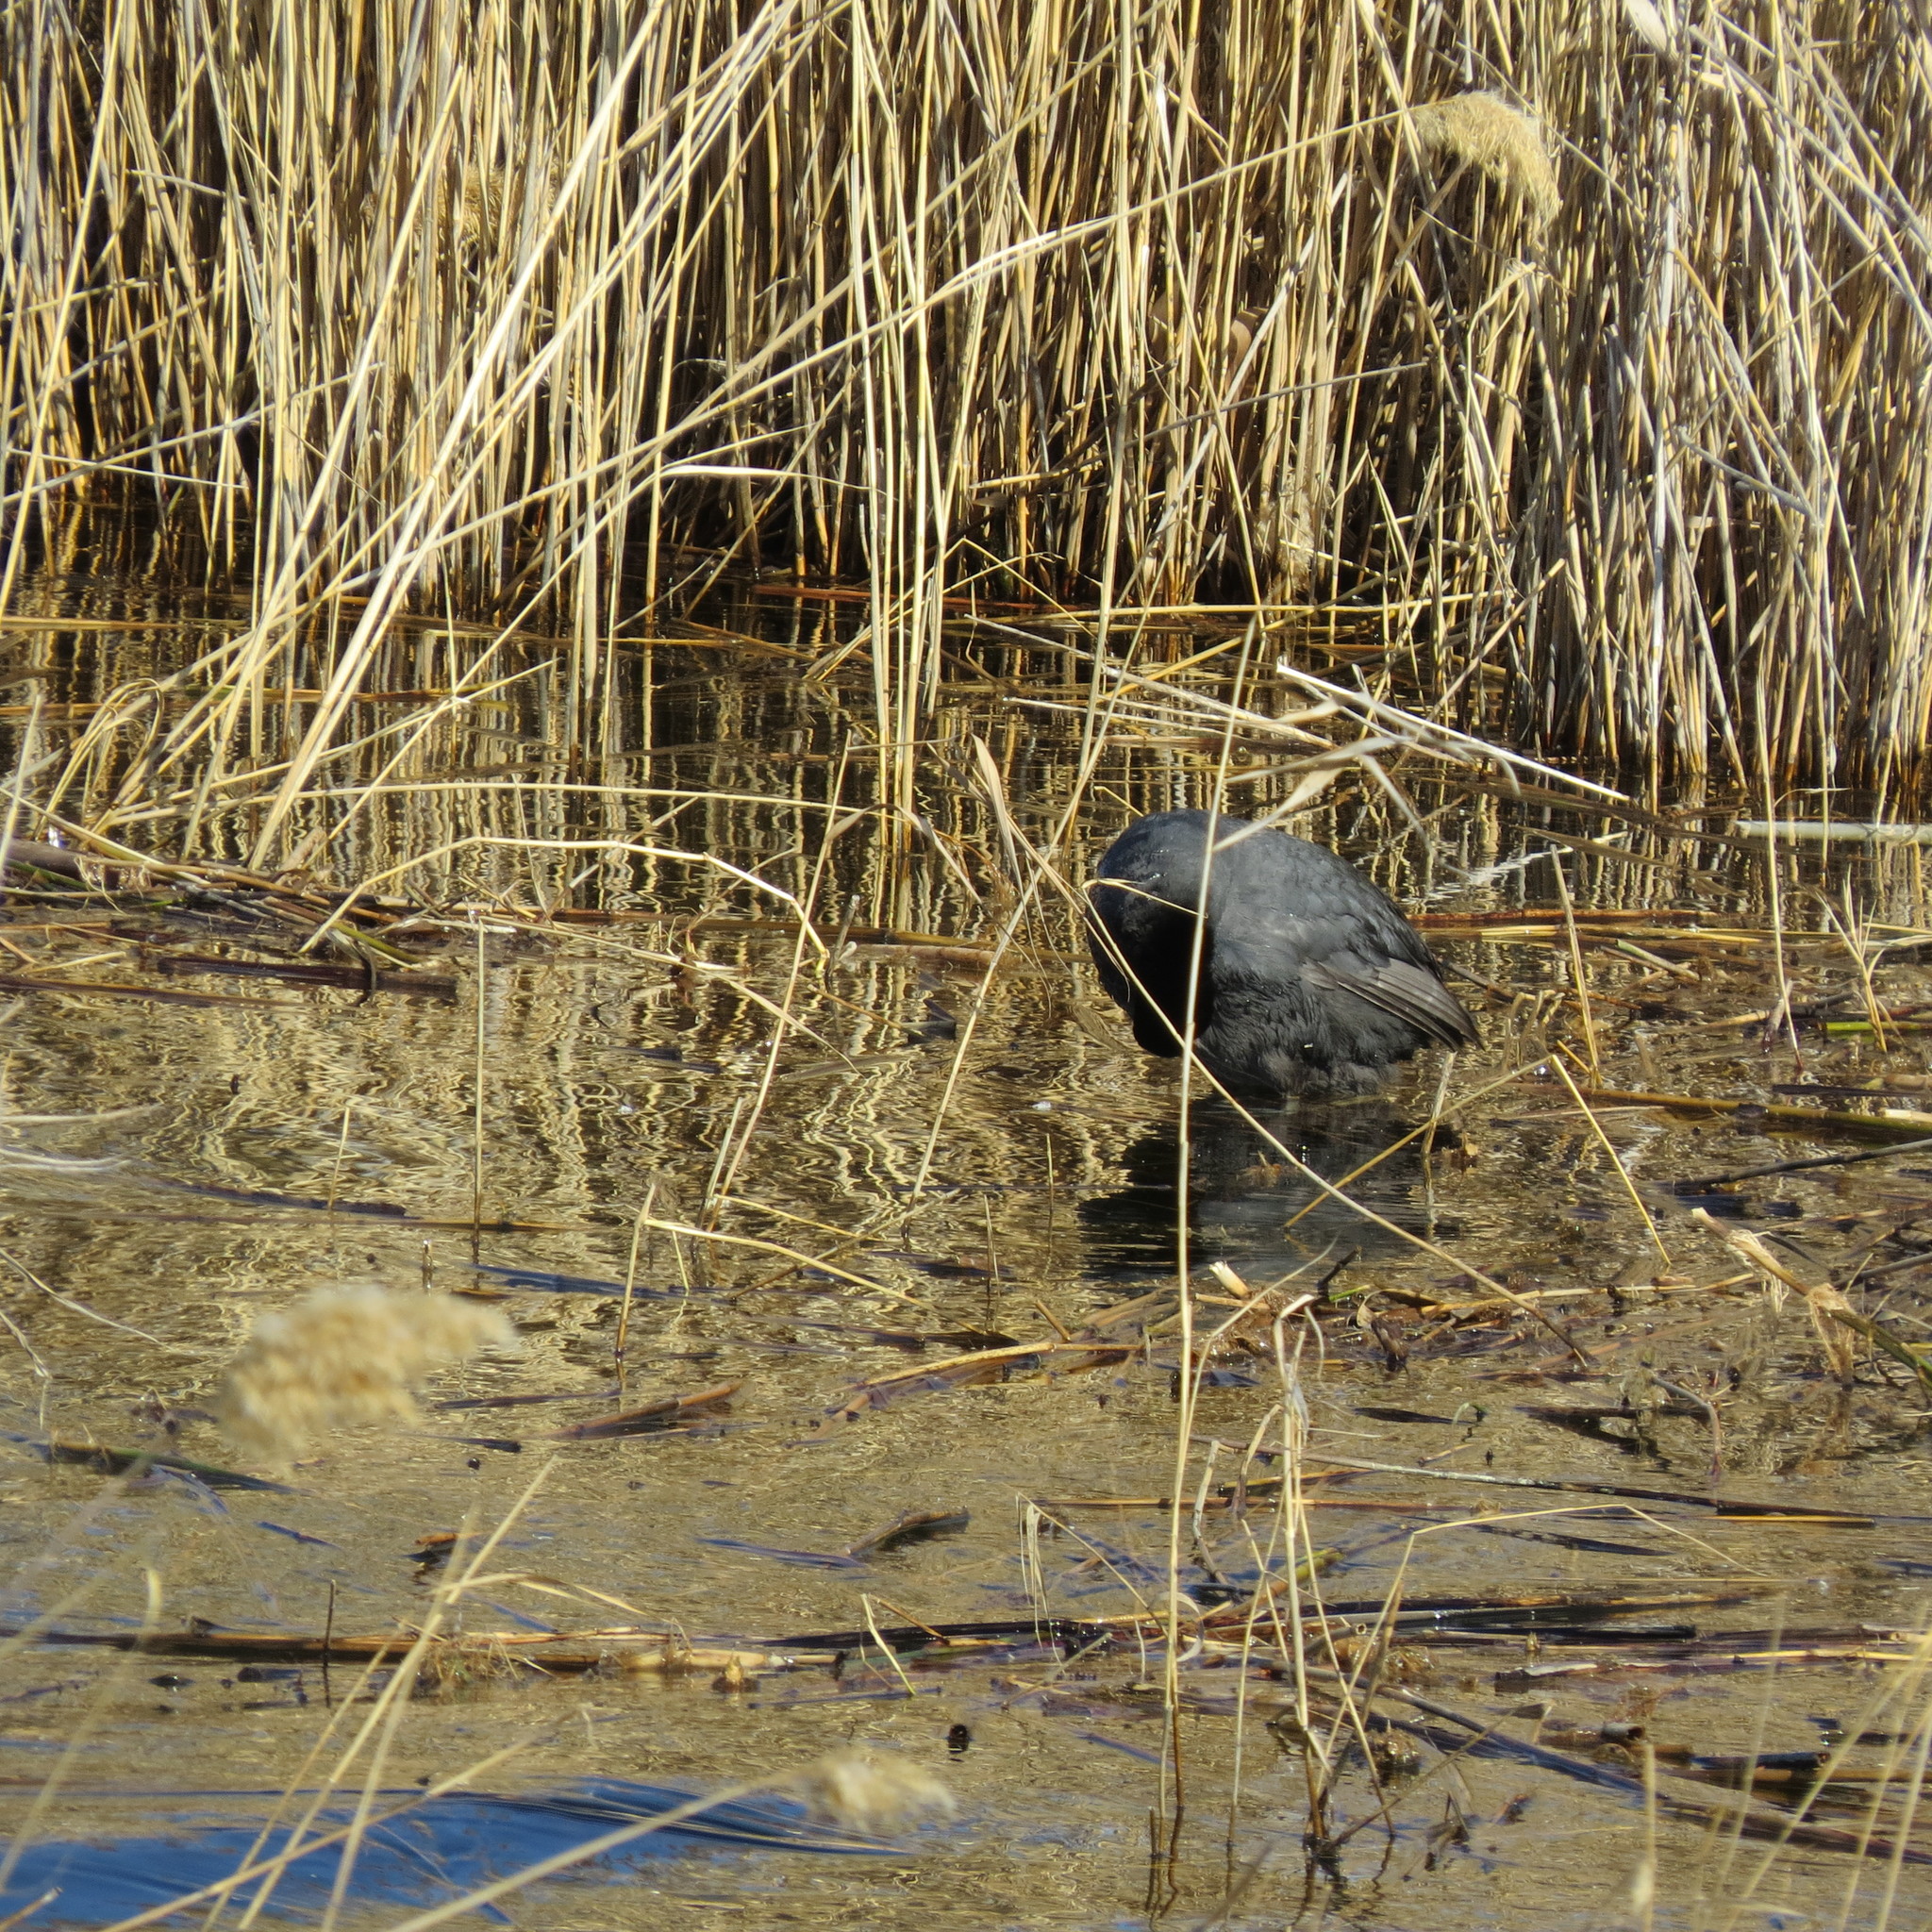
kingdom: Animalia
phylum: Chordata
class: Aves
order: Gruiformes
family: Rallidae
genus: Fulica
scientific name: Fulica atra
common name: Eurasian coot
